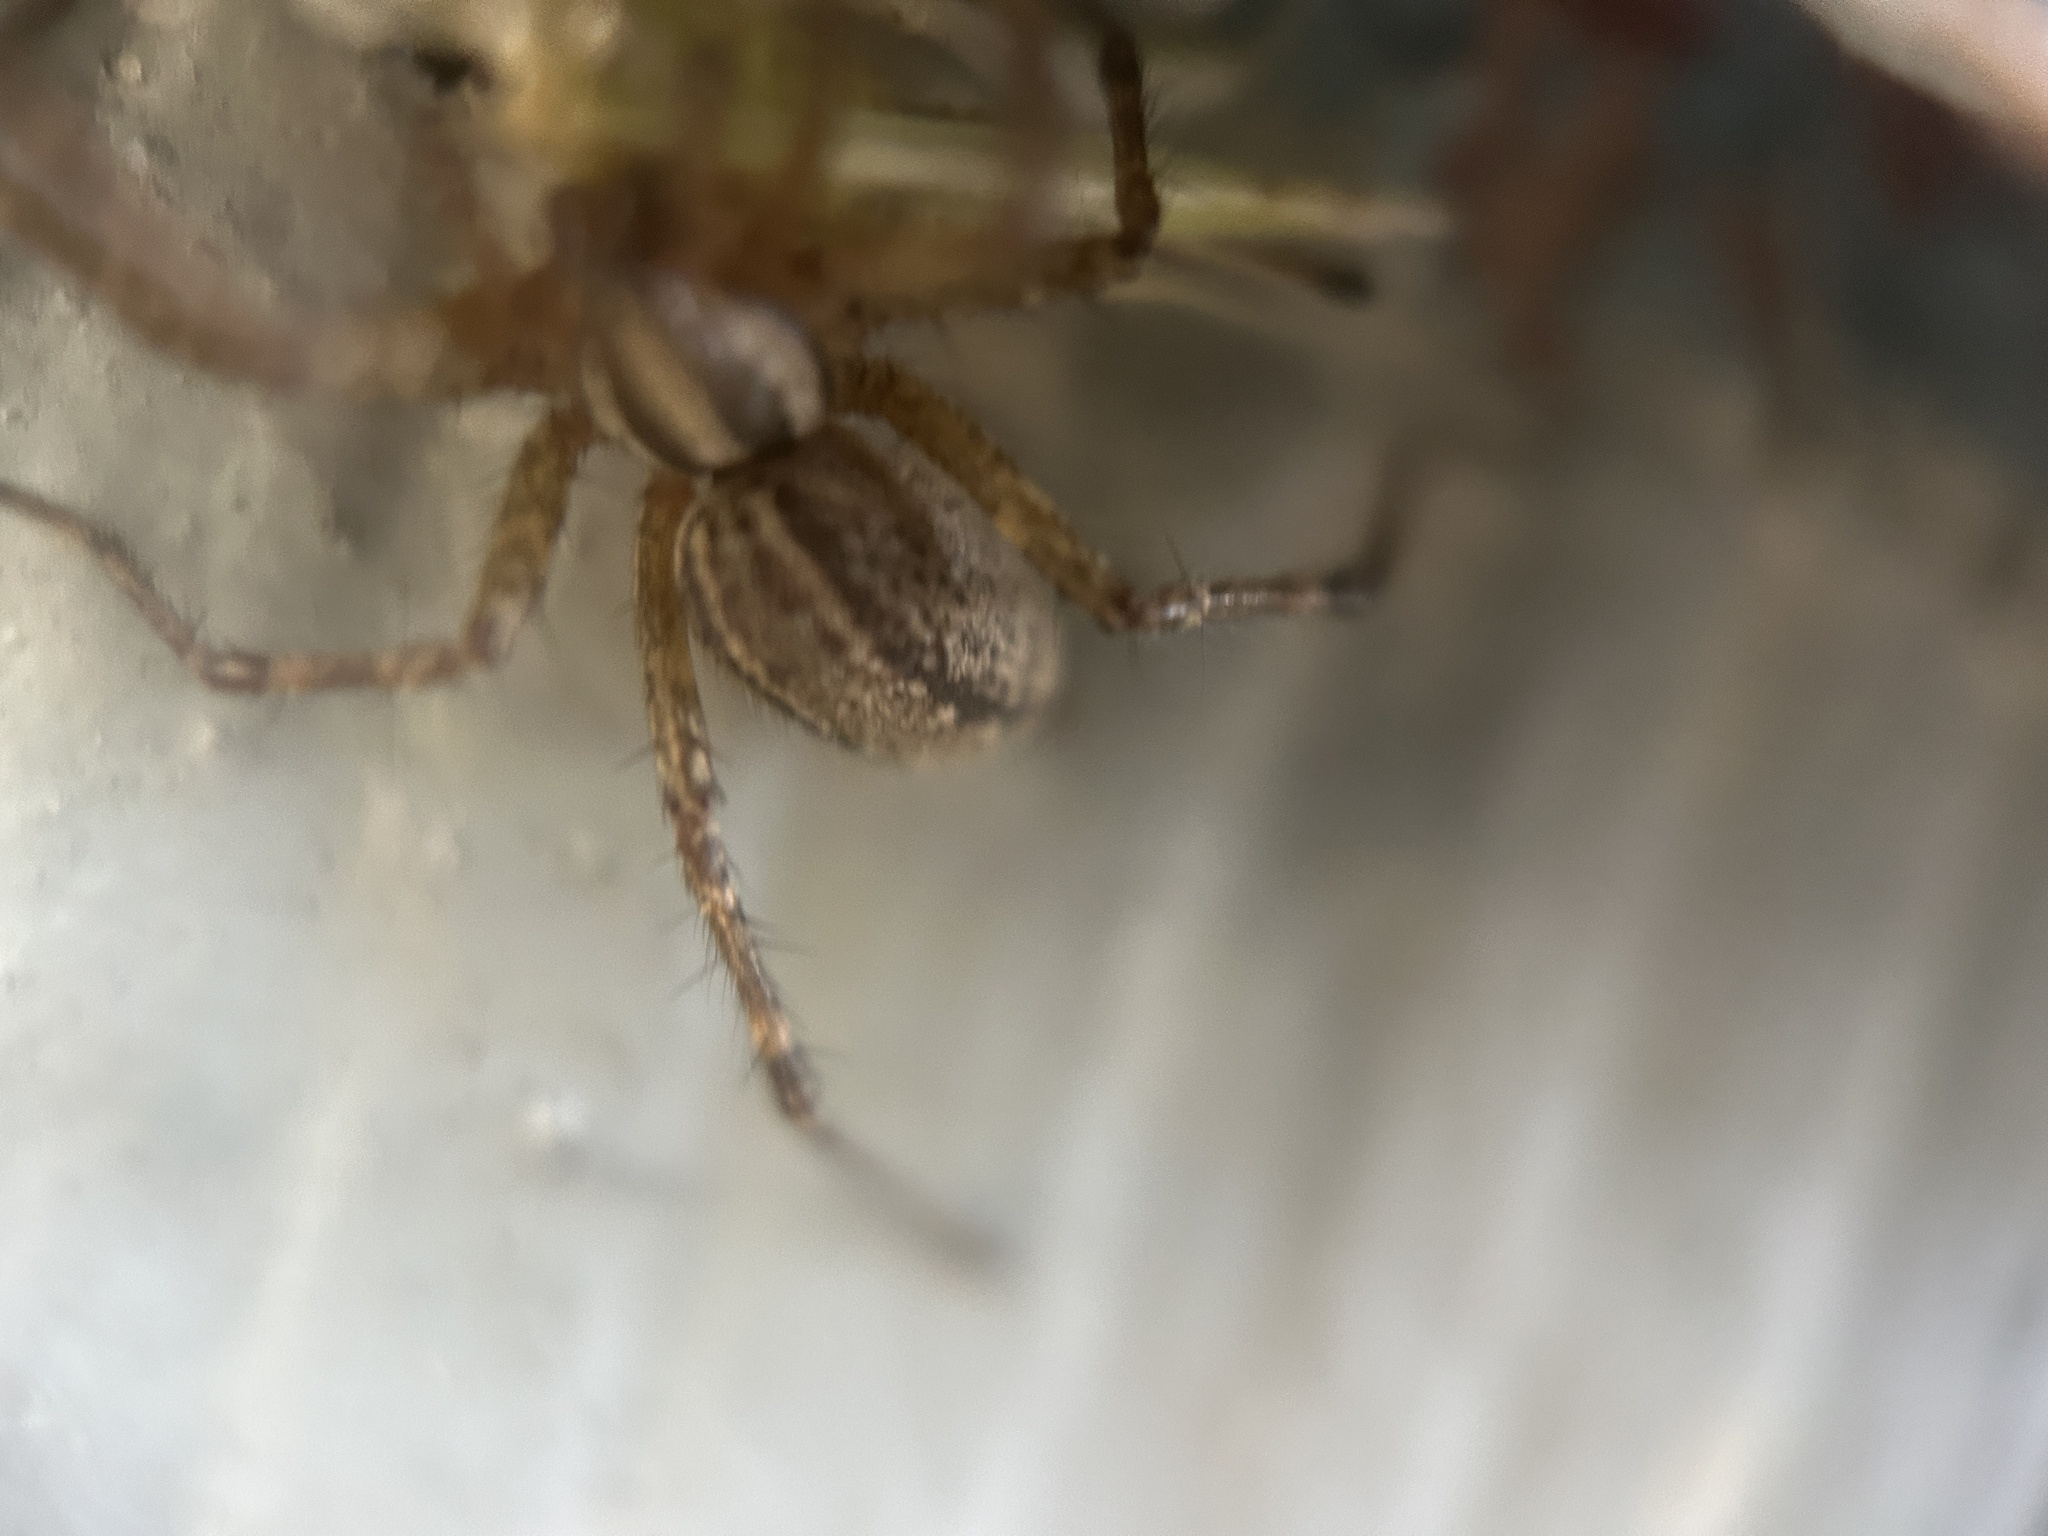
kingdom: Animalia
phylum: Arthropoda
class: Arachnida
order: Araneae
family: Agelenidae
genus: Agelenopsis
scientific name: Agelenopsis
